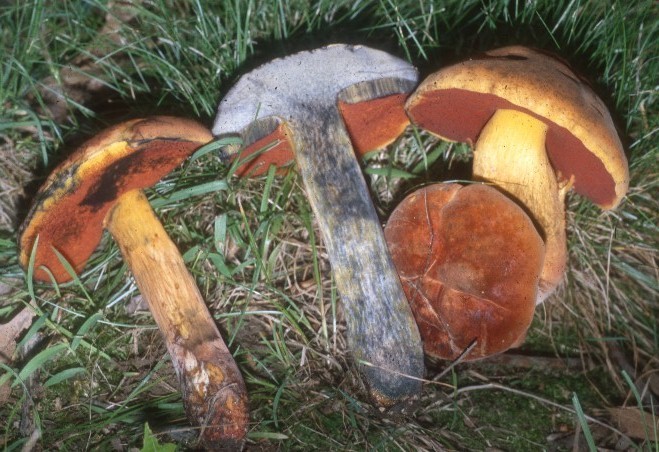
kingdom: Fungi
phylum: Basidiomycota
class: Agaricomycetes
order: Boletales
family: Boletaceae
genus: Boletus
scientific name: Boletus subvelutipes
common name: Red-mouth bolete
